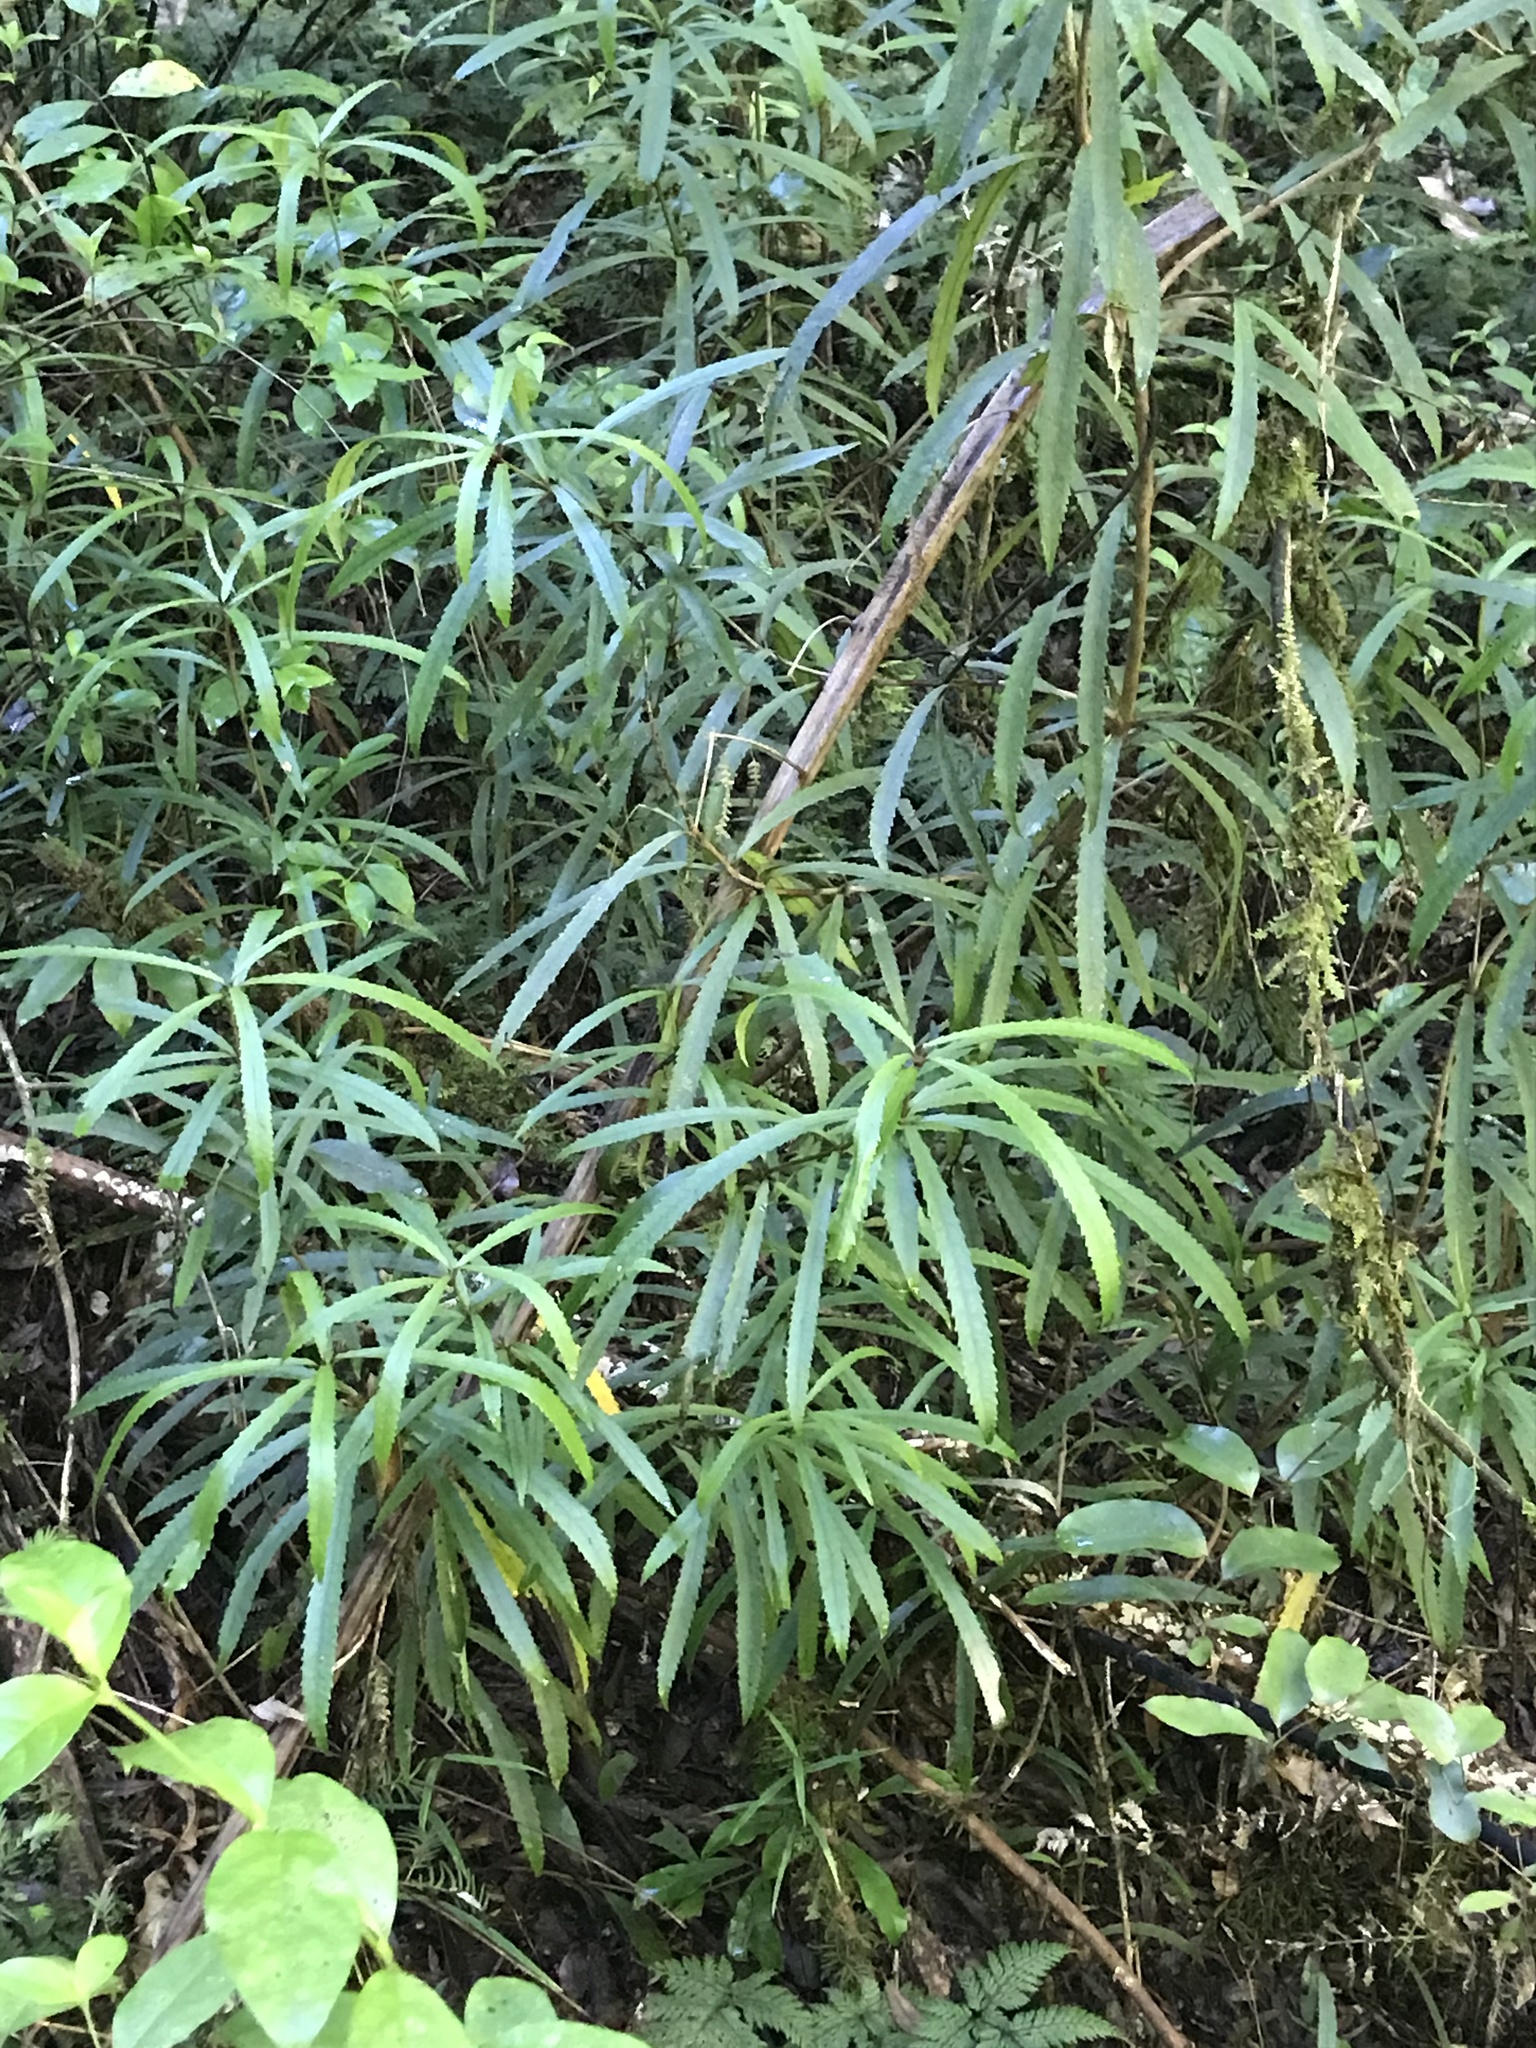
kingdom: Plantae
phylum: Tracheophyta
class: Magnoliopsida
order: Crossosomatales
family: Ixerbaceae
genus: Ixerba
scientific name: Ixerba brexioides
